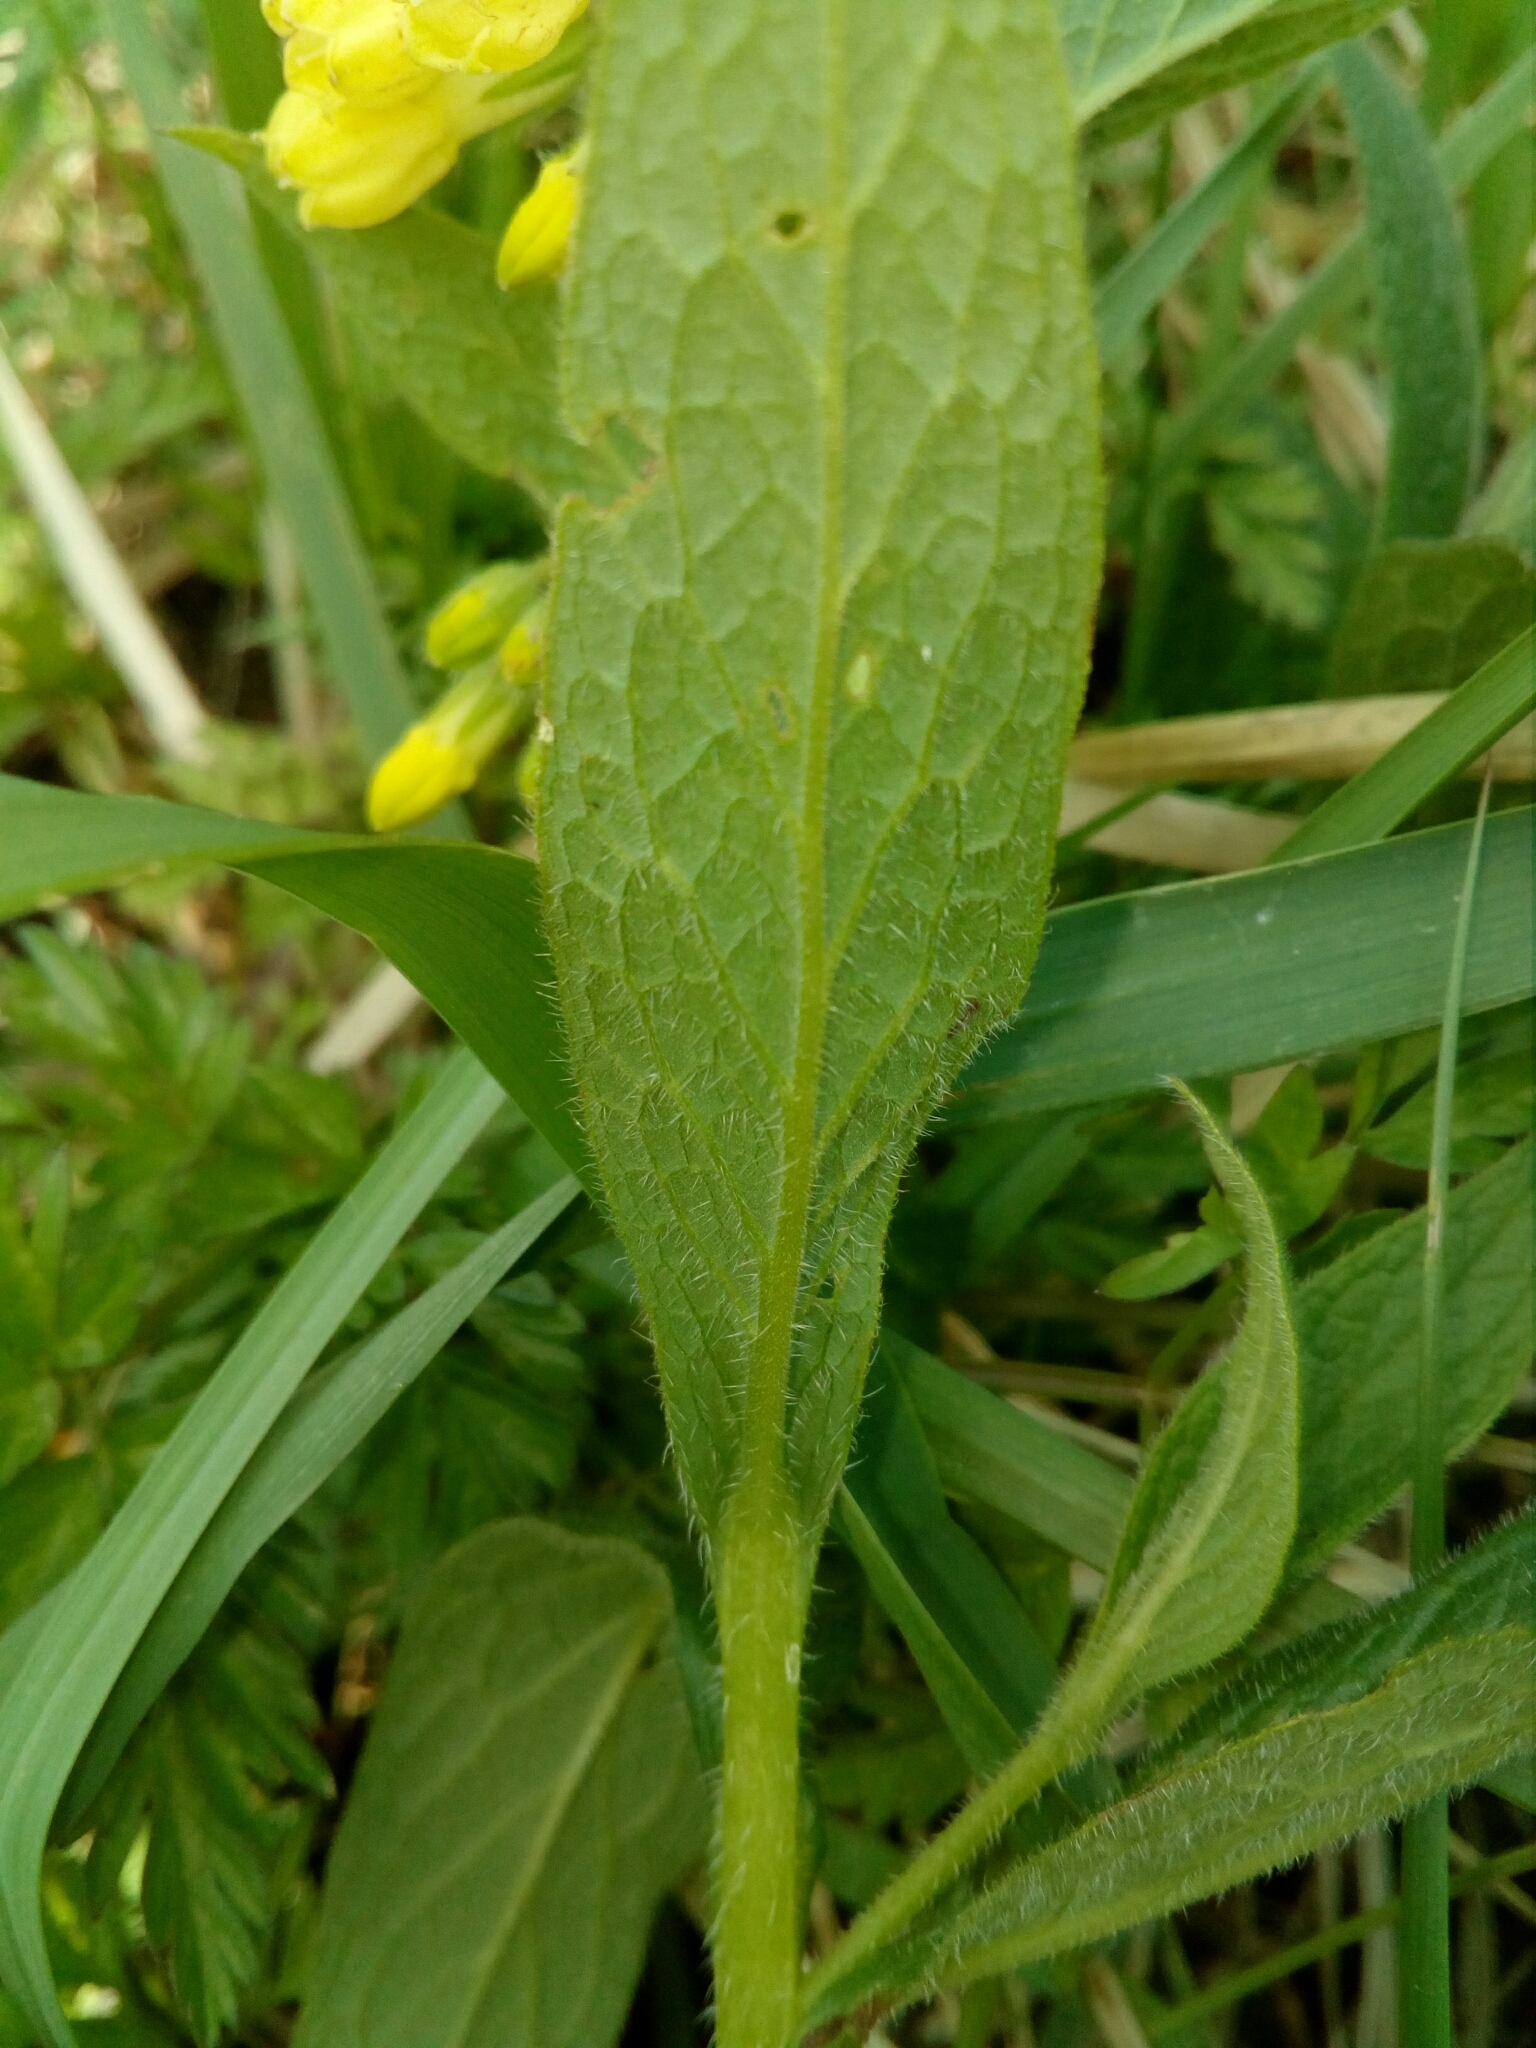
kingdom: Plantae
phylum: Tracheophyta
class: Magnoliopsida
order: Boraginales
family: Boraginaceae
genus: Symphytum
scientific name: Symphytum tuberosum
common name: Tuberous comfrey
